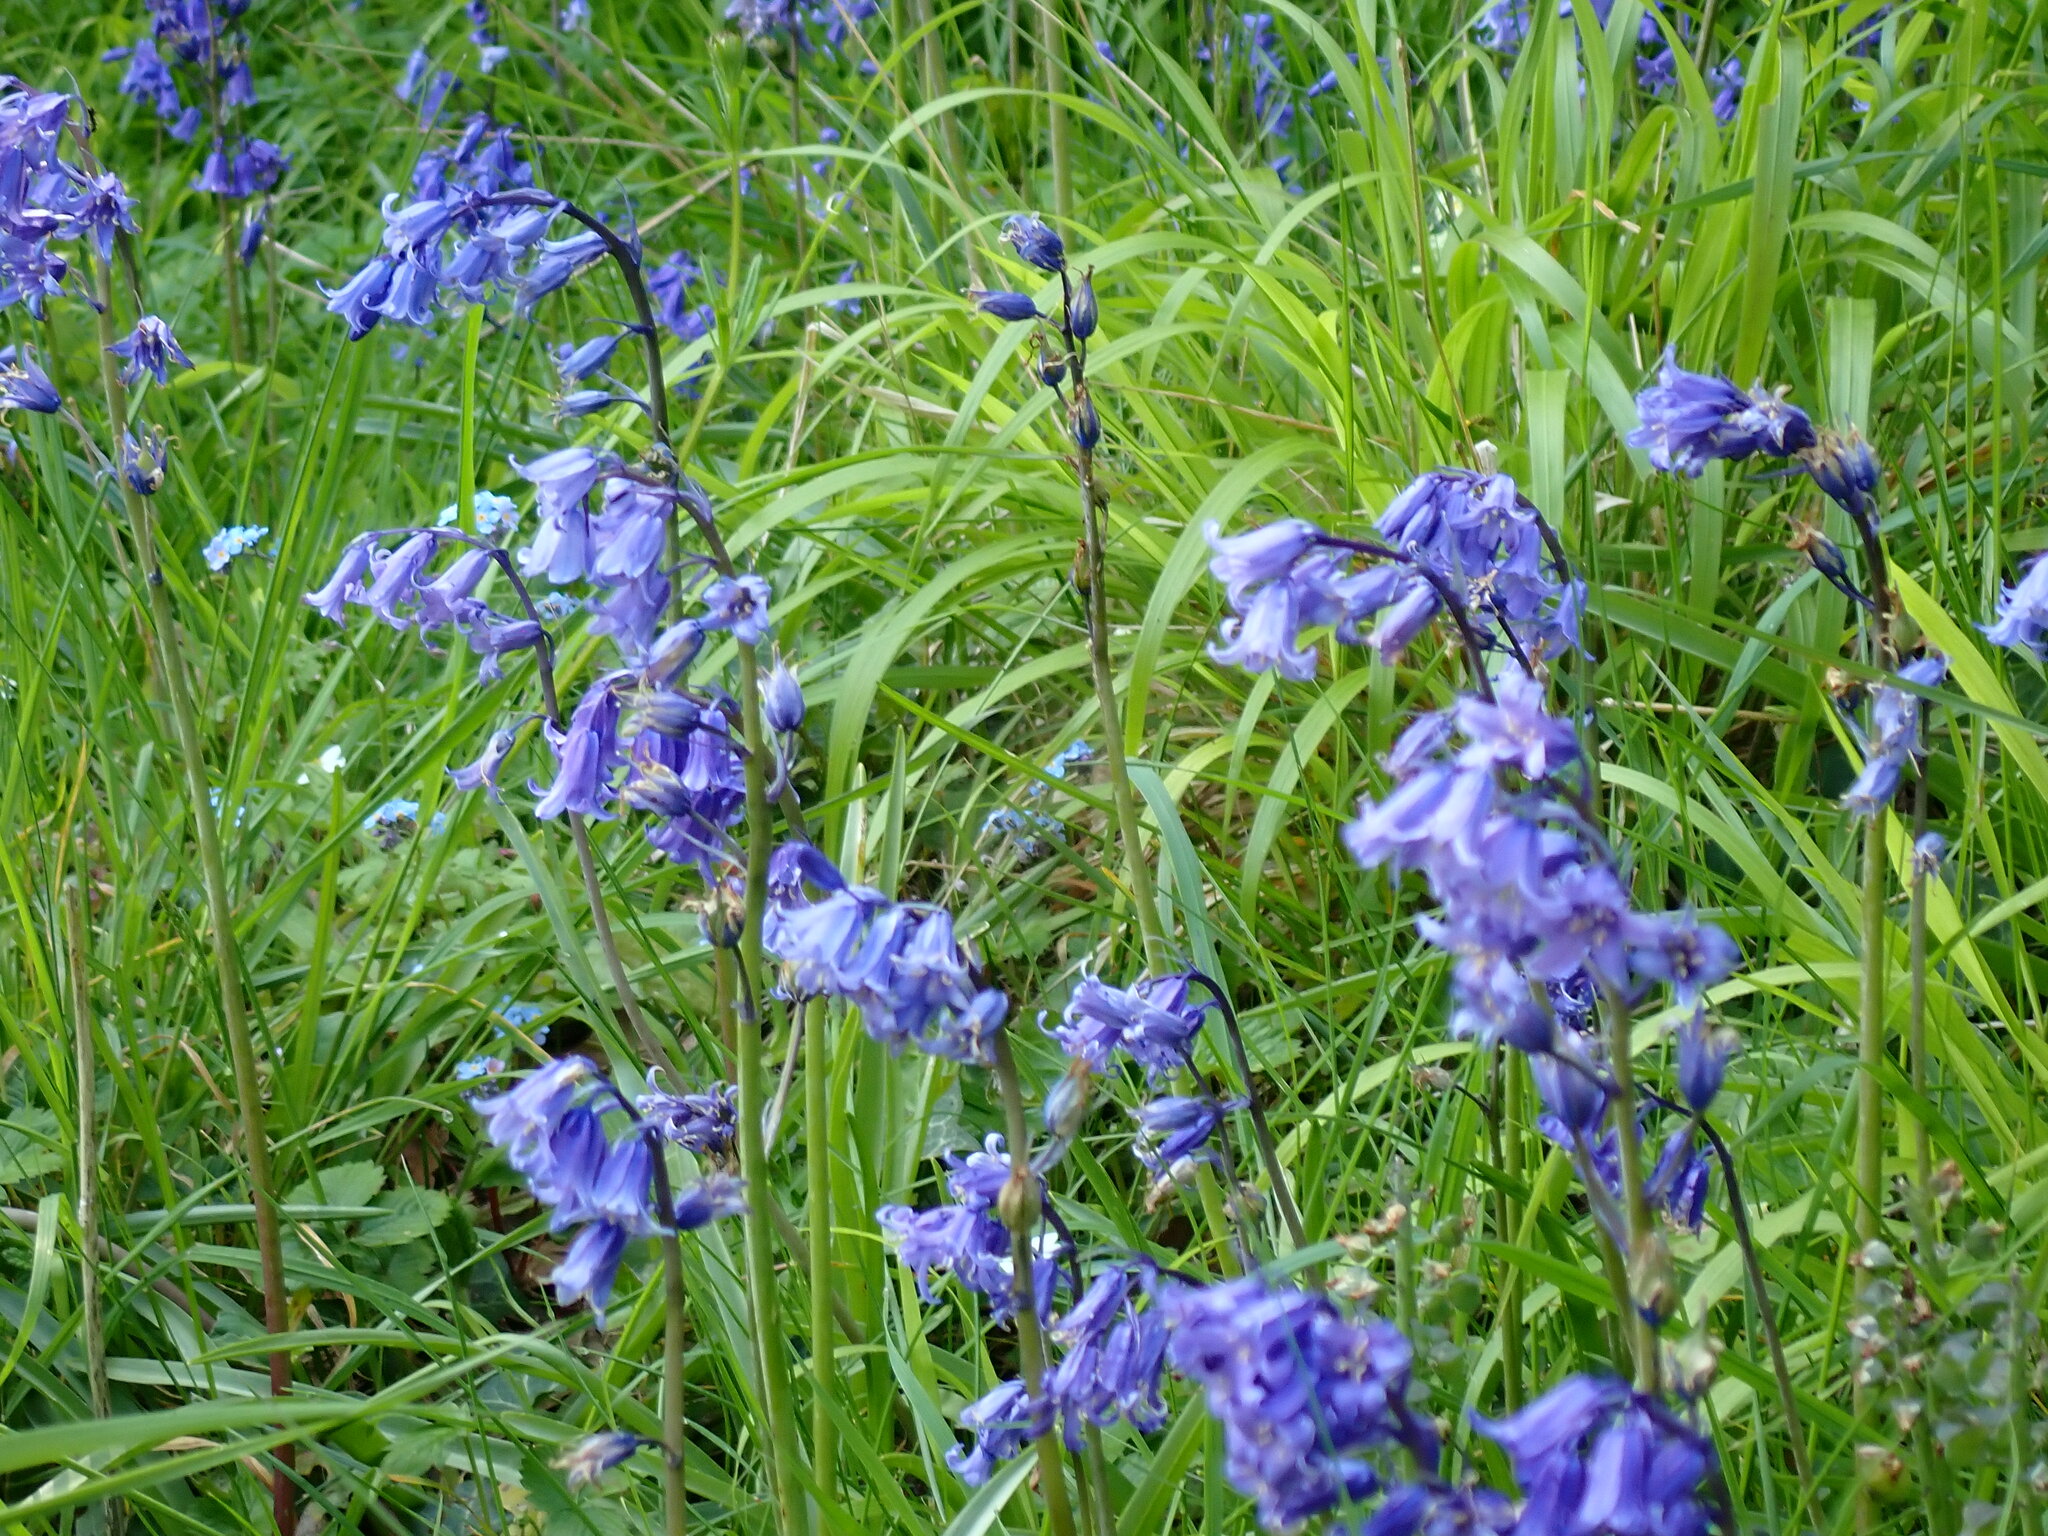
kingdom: Plantae
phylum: Tracheophyta
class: Liliopsida
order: Asparagales
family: Asparagaceae
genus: Hyacinthoides
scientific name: Hyacinthoides non-scripta
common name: Bluebell
